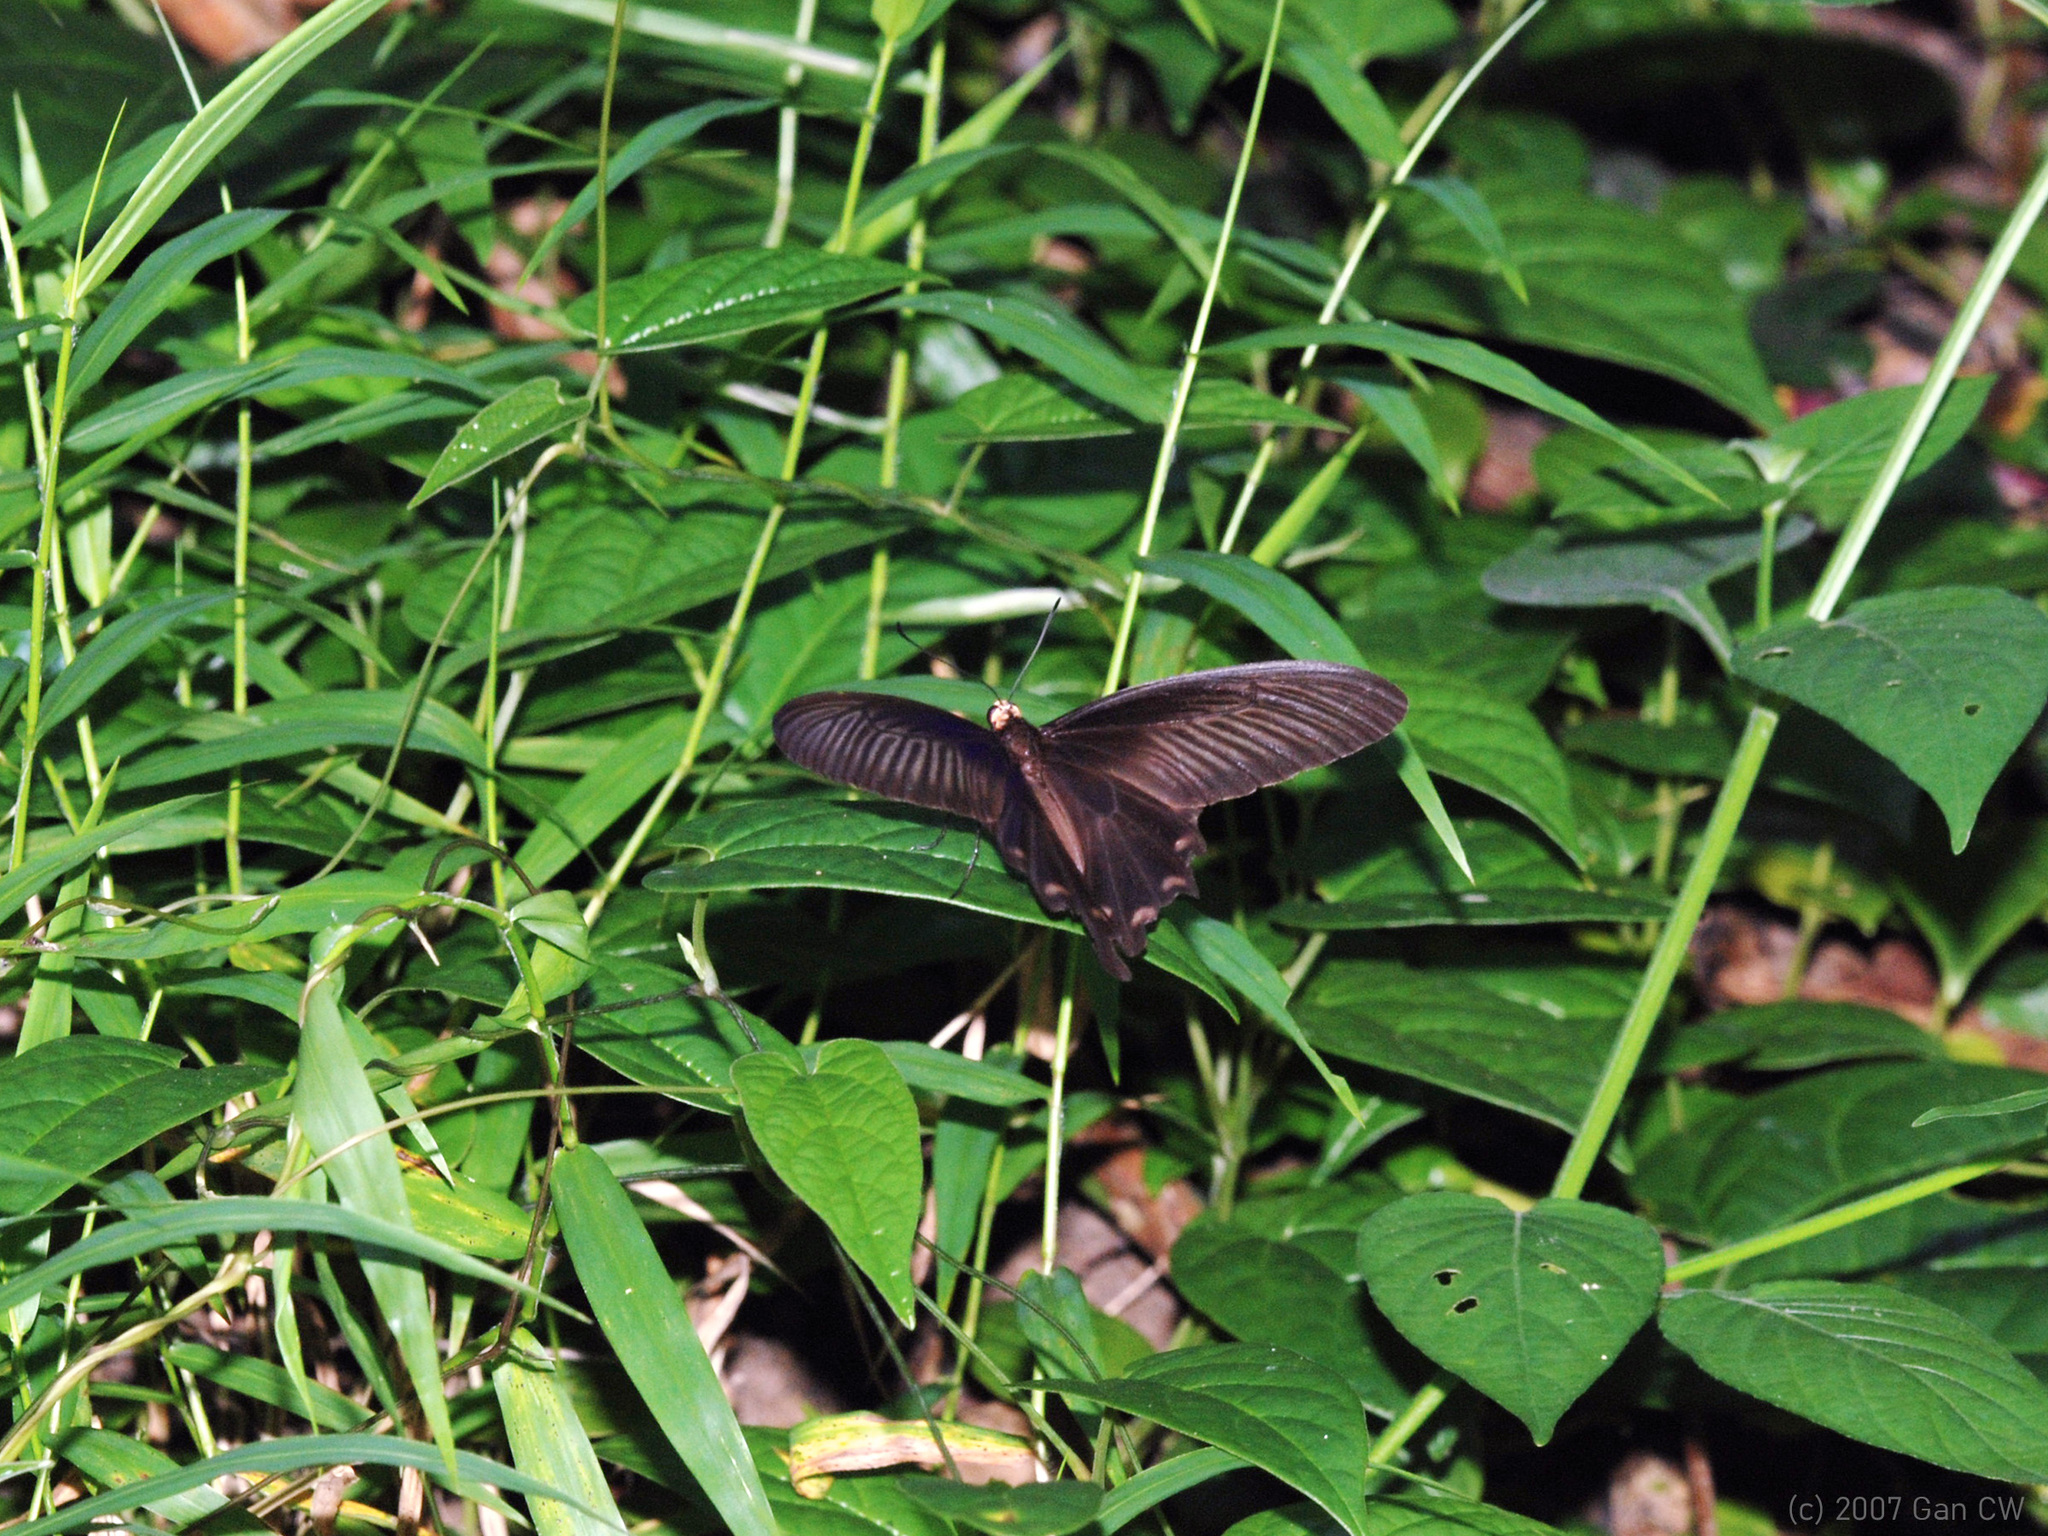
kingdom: Animalia
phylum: Arthropoda
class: Insecta
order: Lepidoptera
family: Papilionidae
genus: Pachliopta
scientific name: Pachliopta aristolochiae
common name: Common rose
